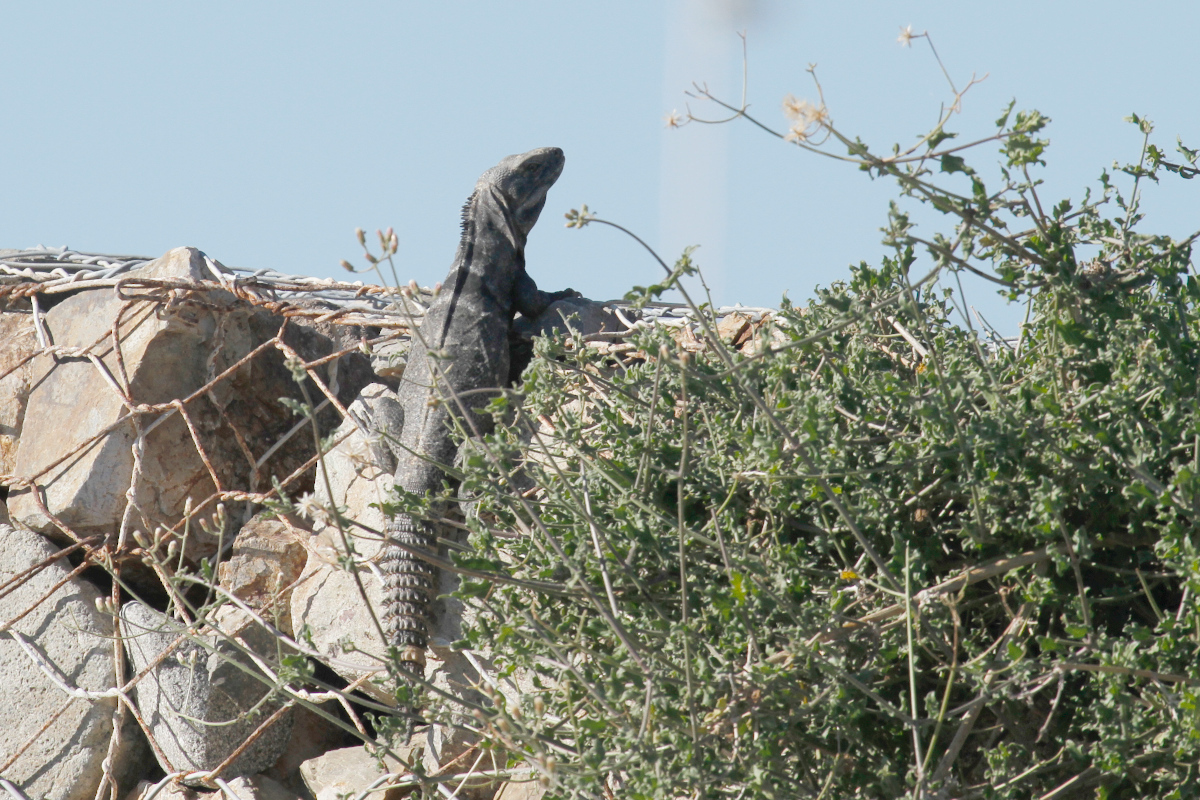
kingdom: Animalia
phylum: Chordata
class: Squamata
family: Iguanidae
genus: Ctenosaura
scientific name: Ctenosaura hemilopha
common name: Baja california spiny- tailed iguana
